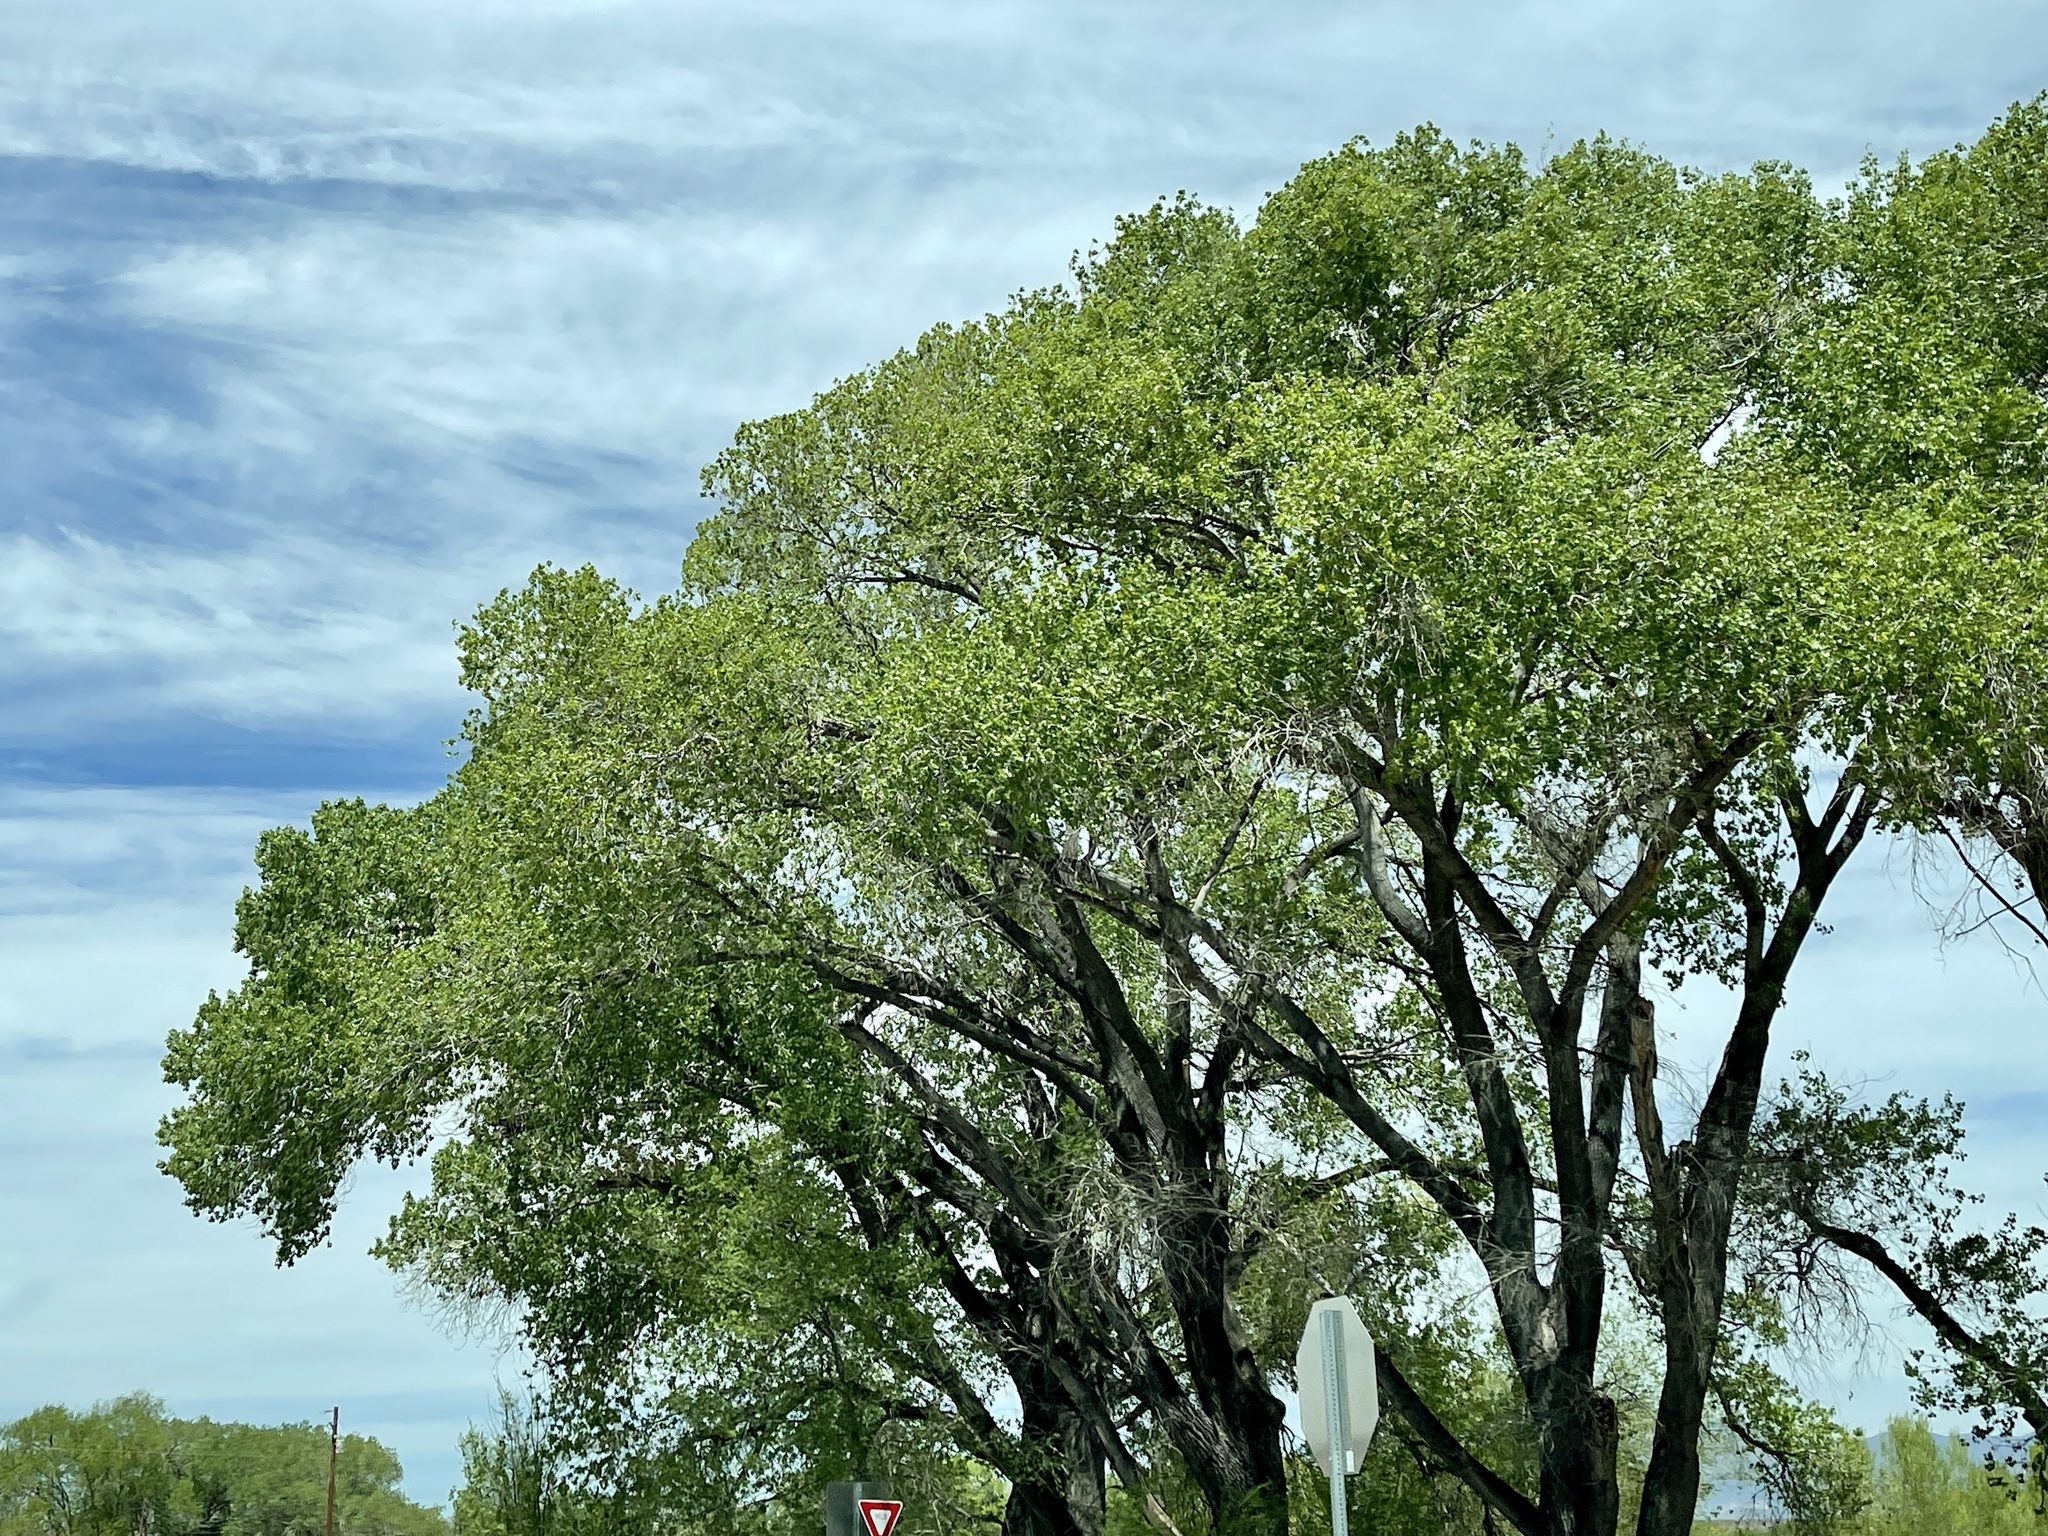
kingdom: Plantae
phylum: Tracheophyta
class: Magnoliopsida
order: Malpighiales
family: Salicaceae
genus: Populus
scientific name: Populus fremontii
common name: Fremont's cottonwood
